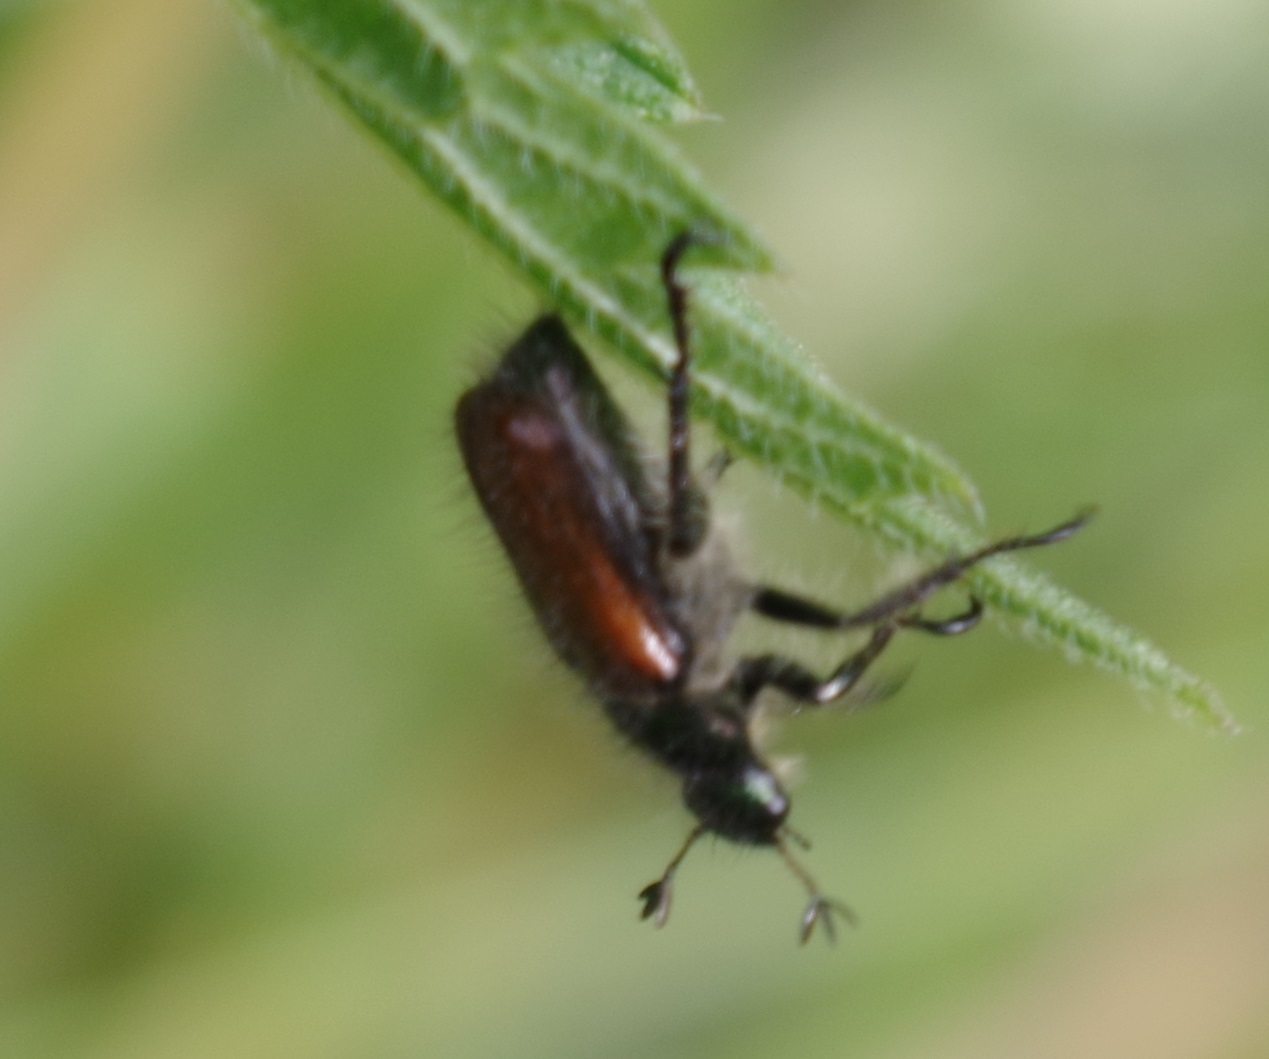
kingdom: Animalia
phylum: Arthropoda
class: Insecta
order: Coleoptera
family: Scarabaeidae
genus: Phyllopertha
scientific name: Phyllopertha horticola
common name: Garden chafer
